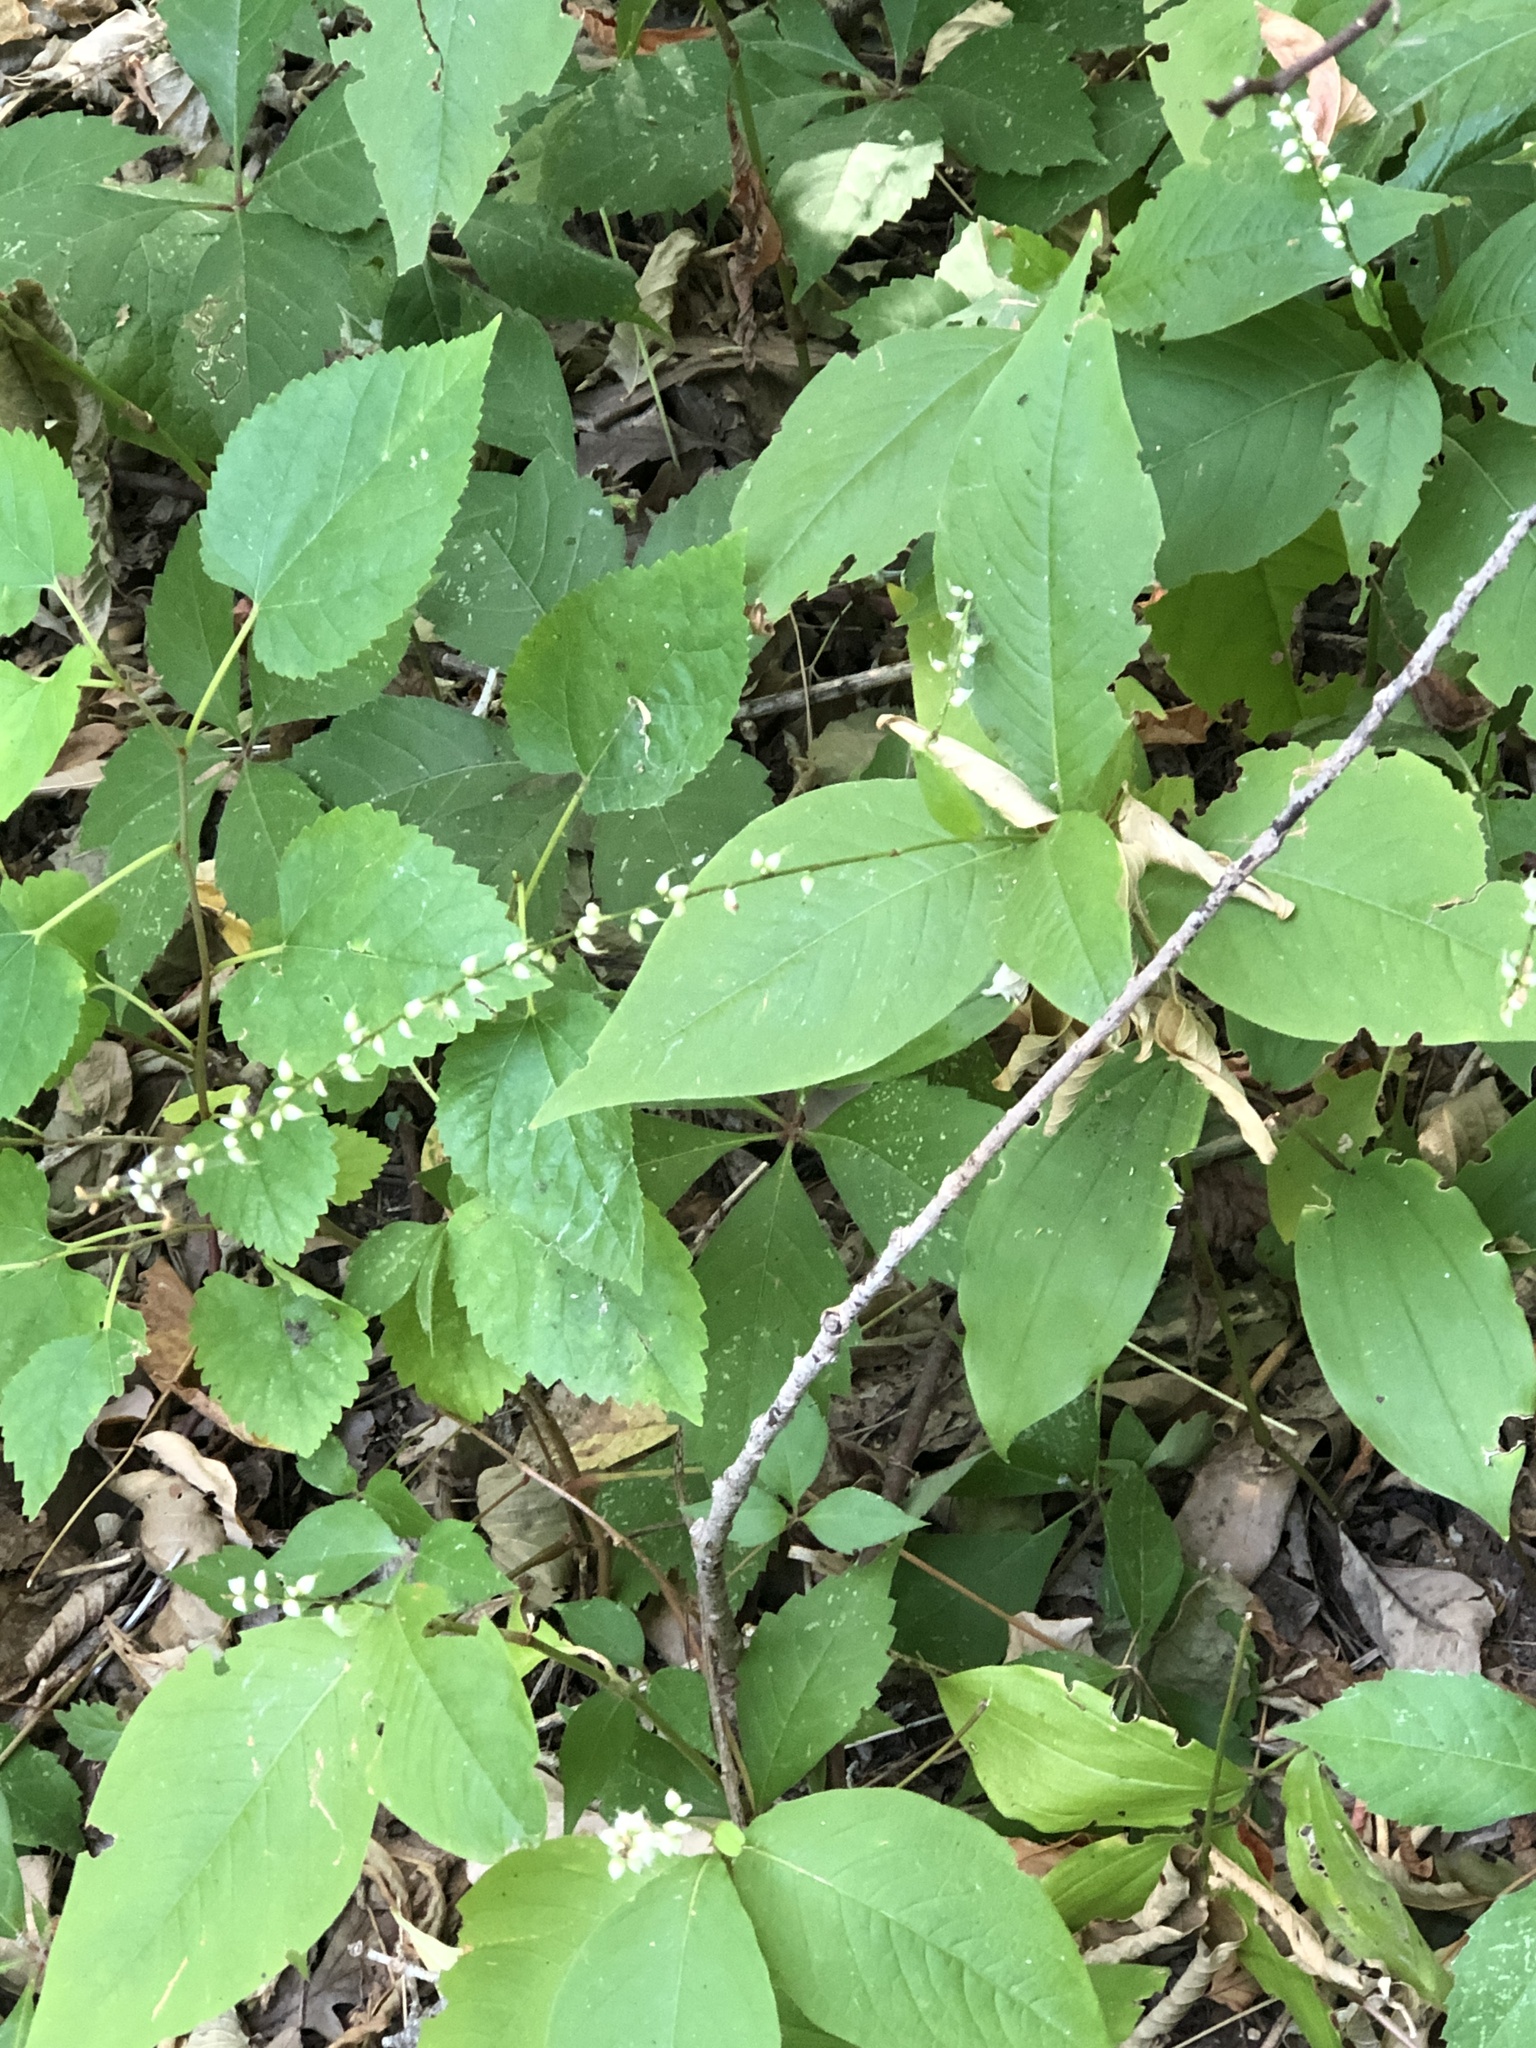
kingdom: Plantae
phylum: Tracheophyta
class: Magnoliopsida
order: Caryophyllales
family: Polygonaceae
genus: Persicaria
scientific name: Persicaria virginiana
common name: Jumpseed
